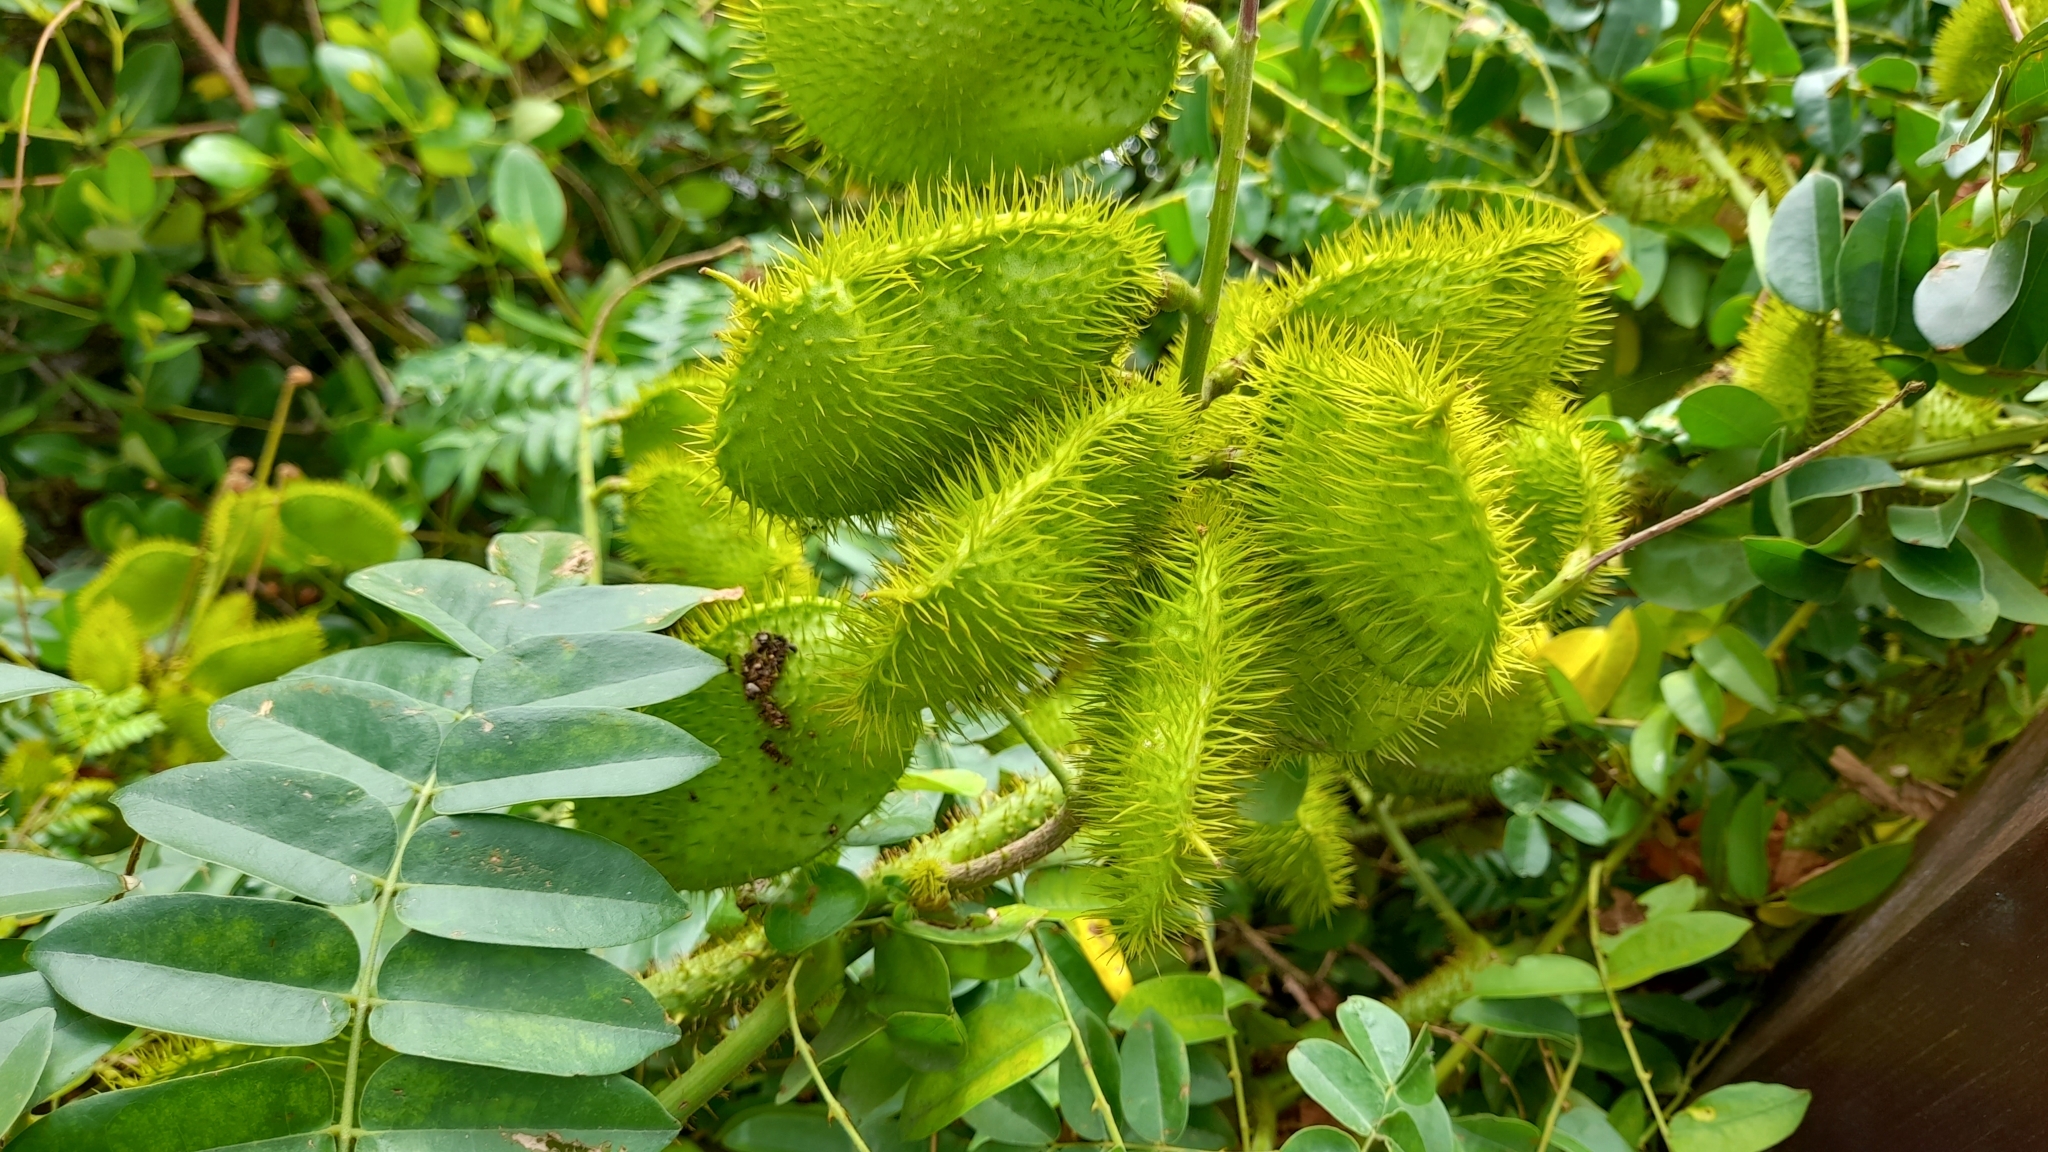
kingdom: Plantae
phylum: Tracheophyta
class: Magnoliopsida
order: Fabales
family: Fabaceae
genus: Guilandina
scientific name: Guilandina bonduc
